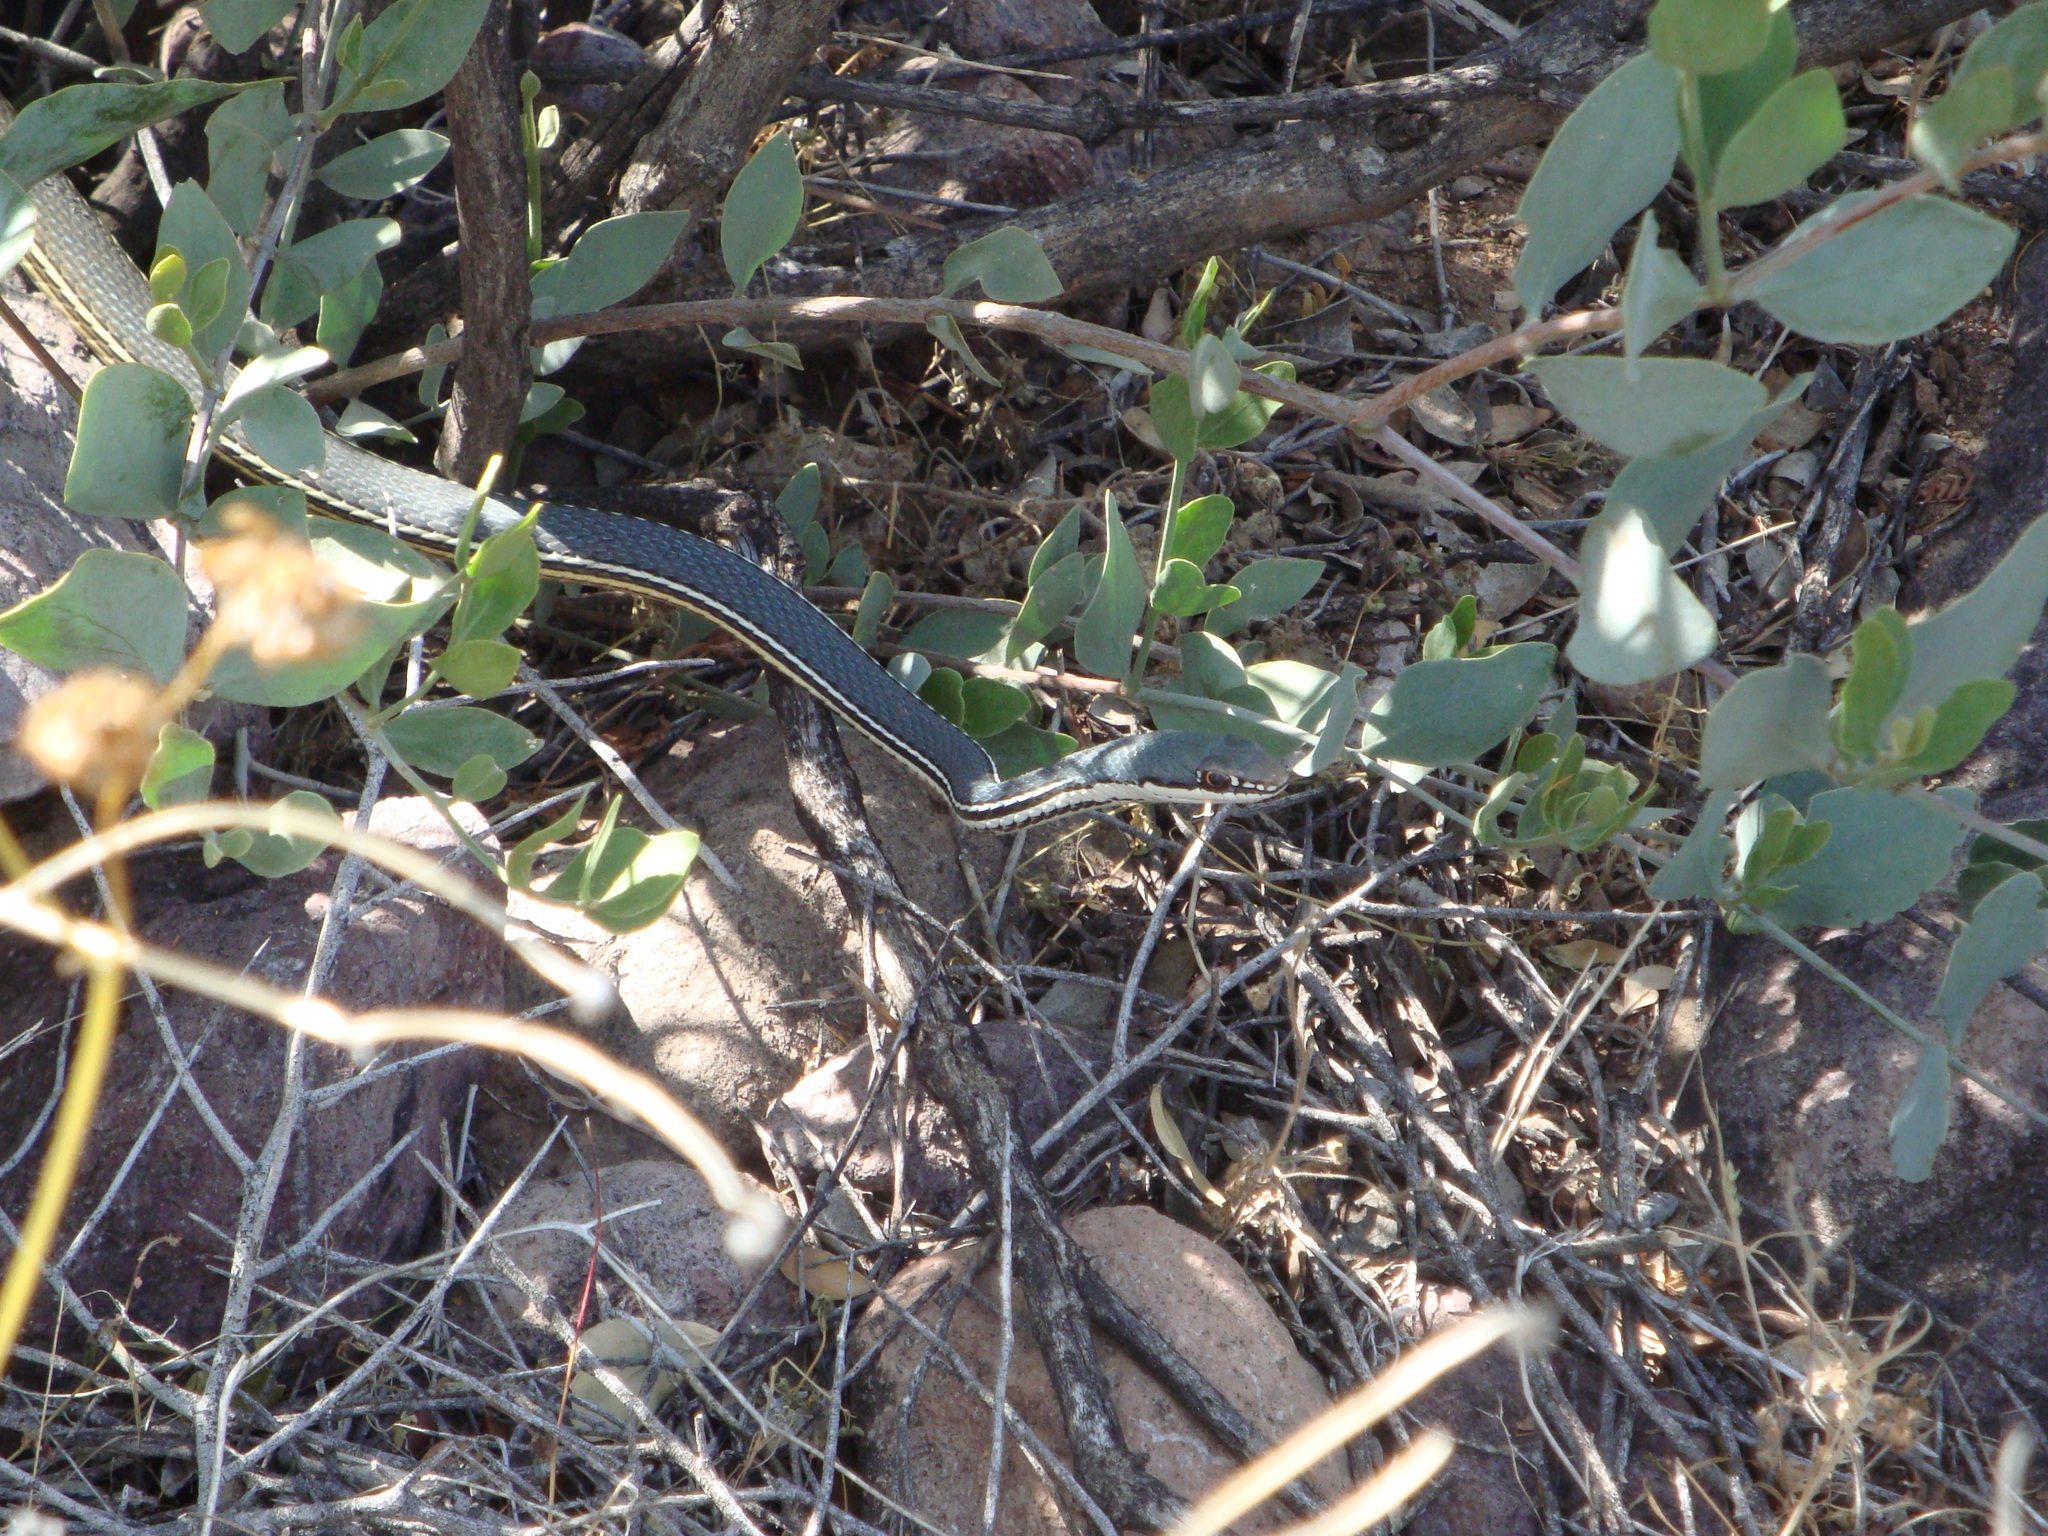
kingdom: Animalia
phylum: Chordata
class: Squamata
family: Colubridae
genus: Masticophis
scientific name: Masticophis bilineatus
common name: Sonoran whipsnake
